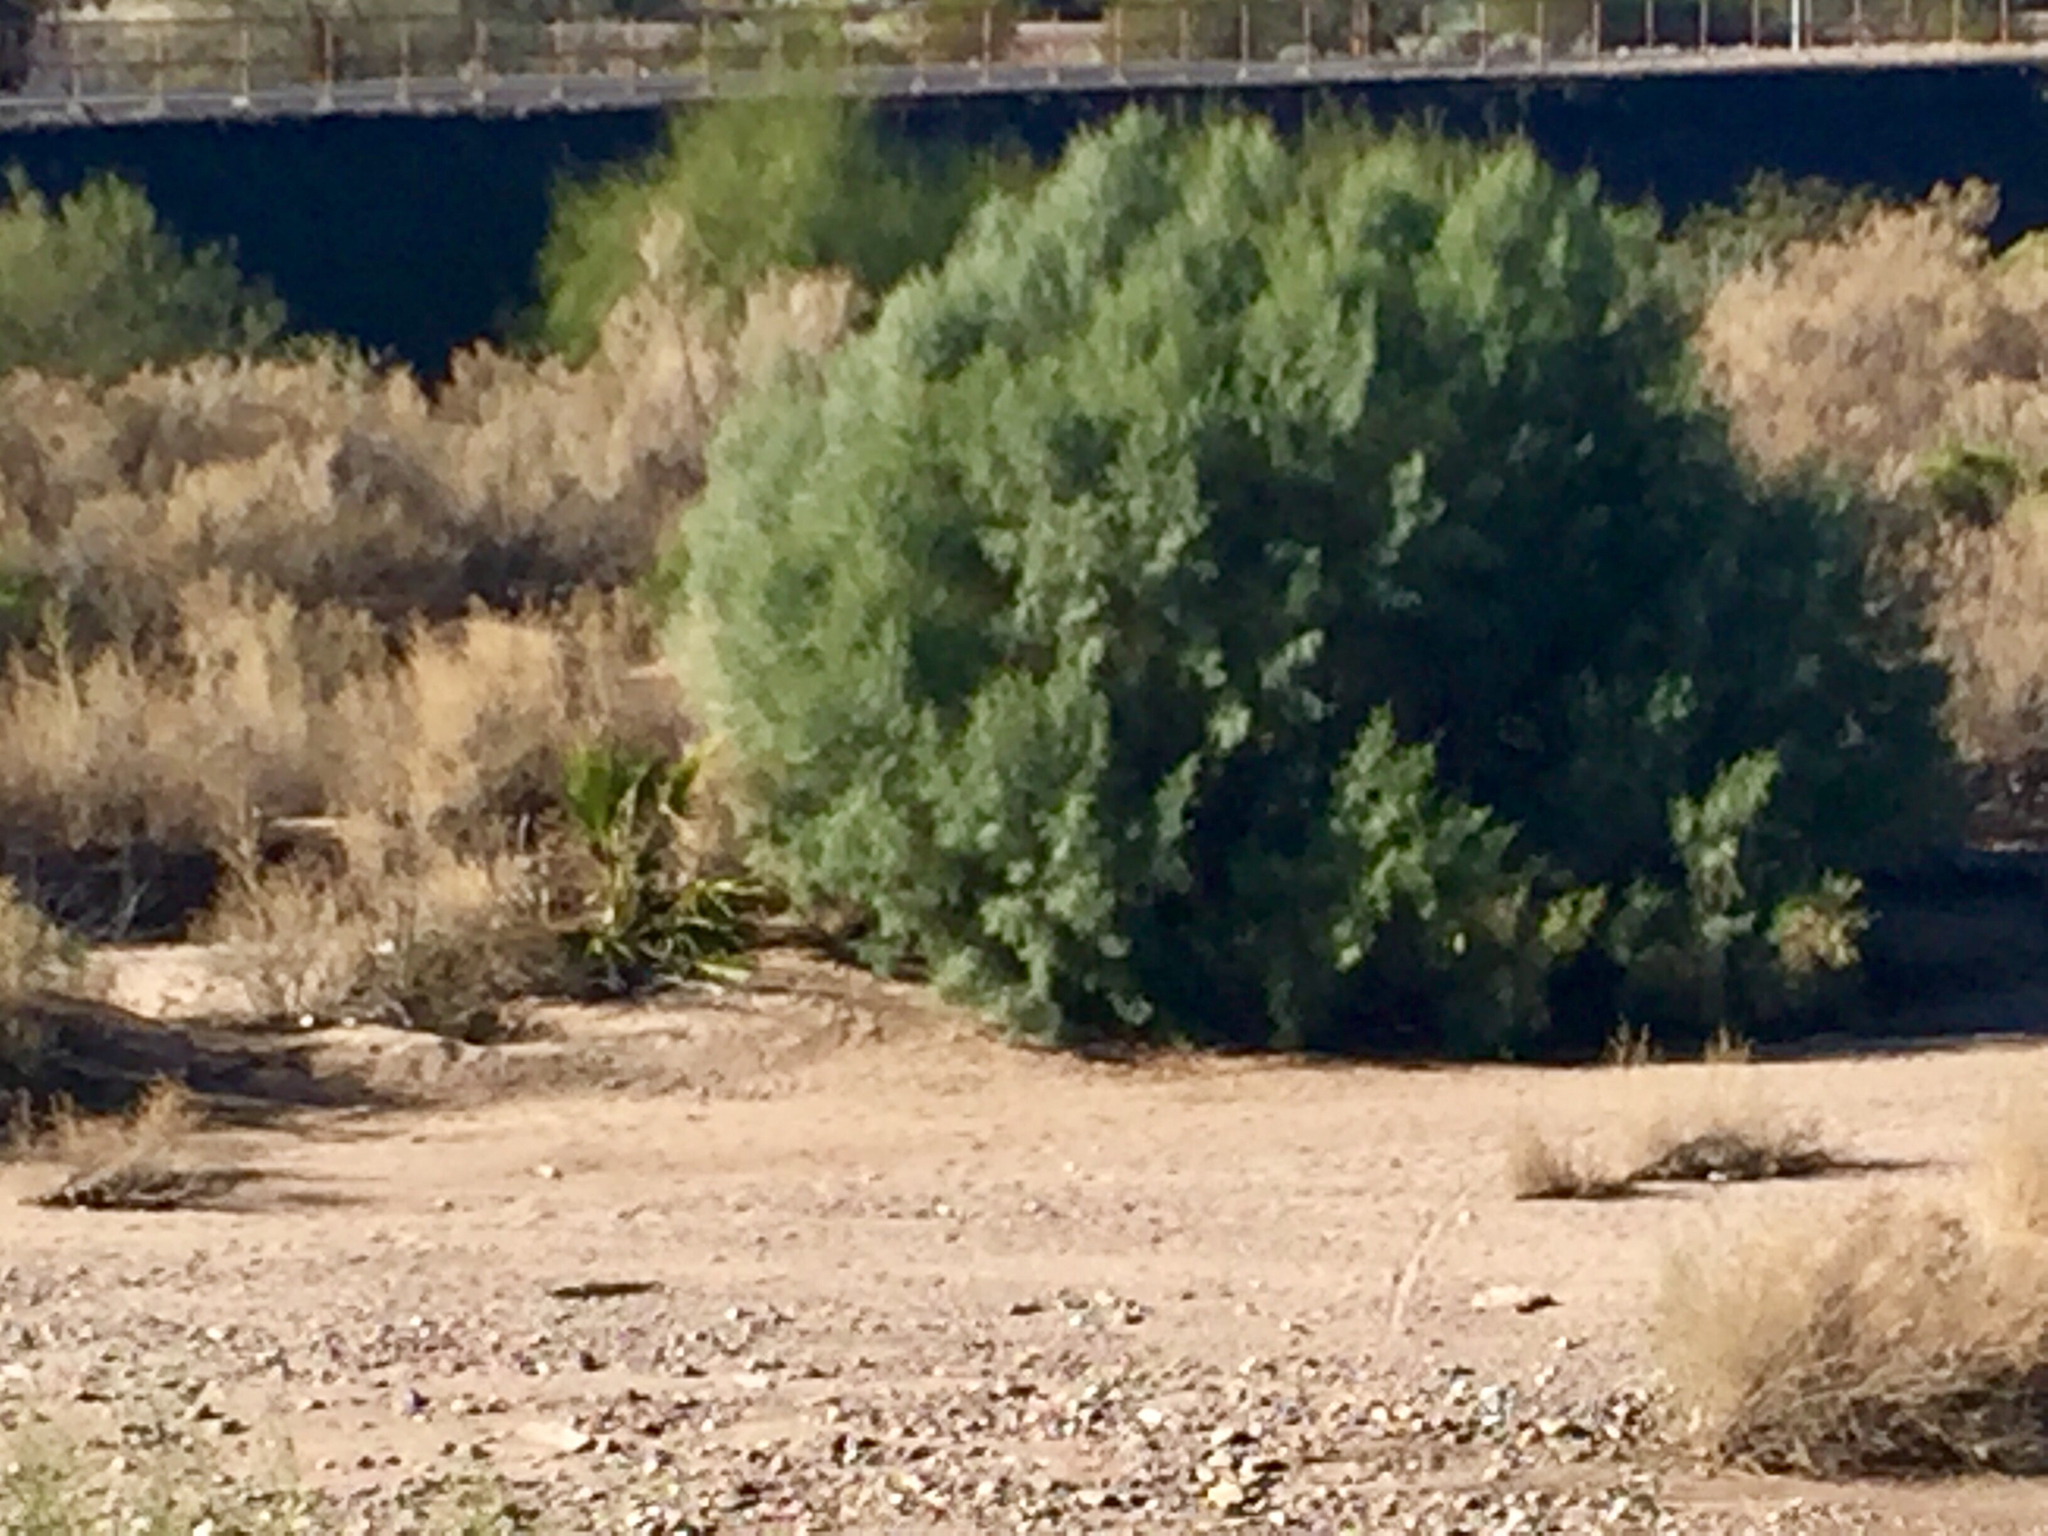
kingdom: Plantae
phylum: Tracheophyta
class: Magnoliopsida
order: Caryophyllales
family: Tamaricaceae
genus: Tamarix
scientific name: Tamarix
